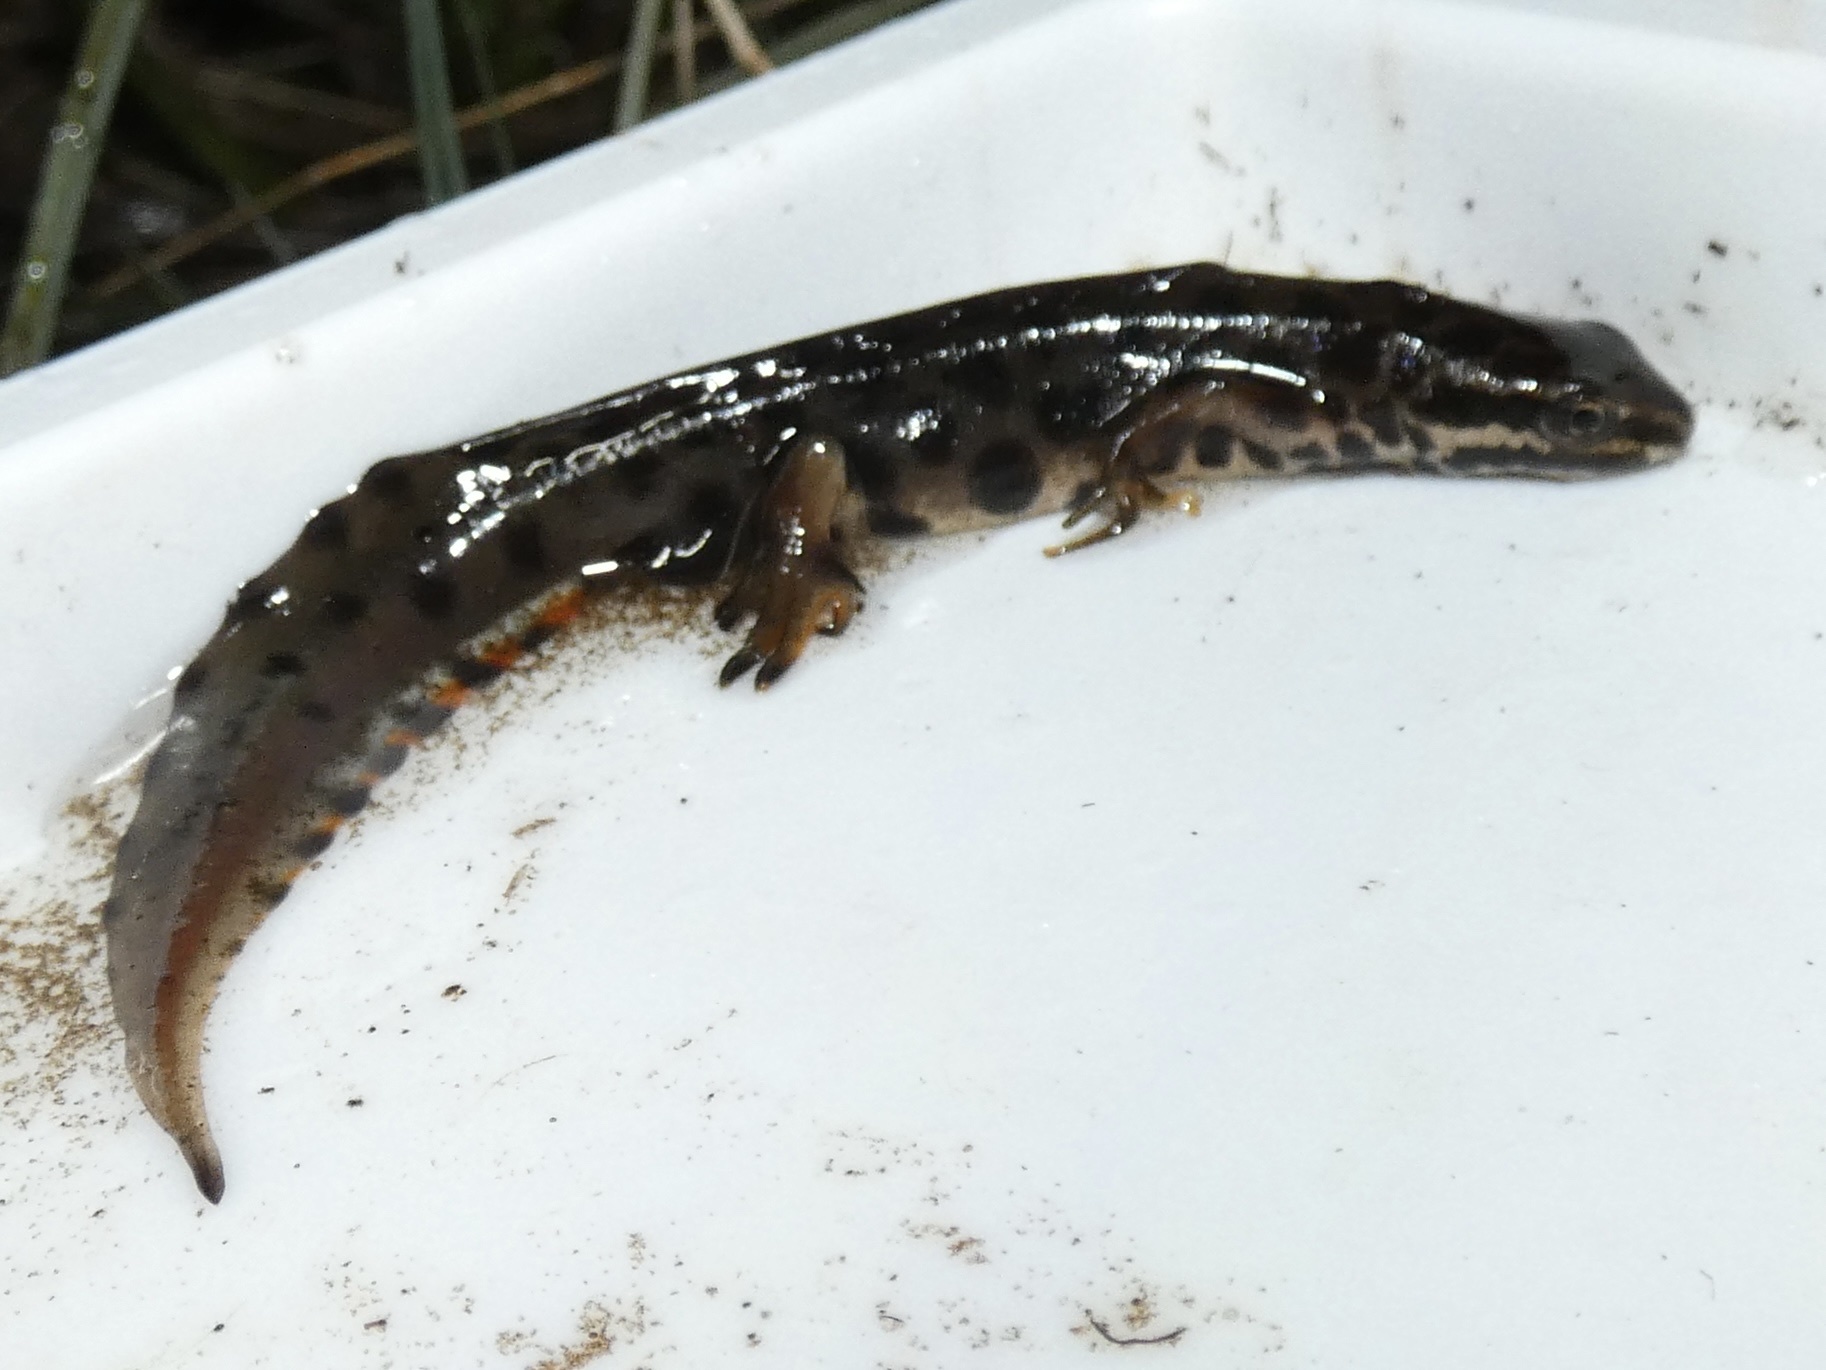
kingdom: Animalia
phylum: Chordata
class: Amphibia
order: Caudata
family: Salamandridae
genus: Lissotriton
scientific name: Lissotriton vulgaris
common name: Smooth newt
